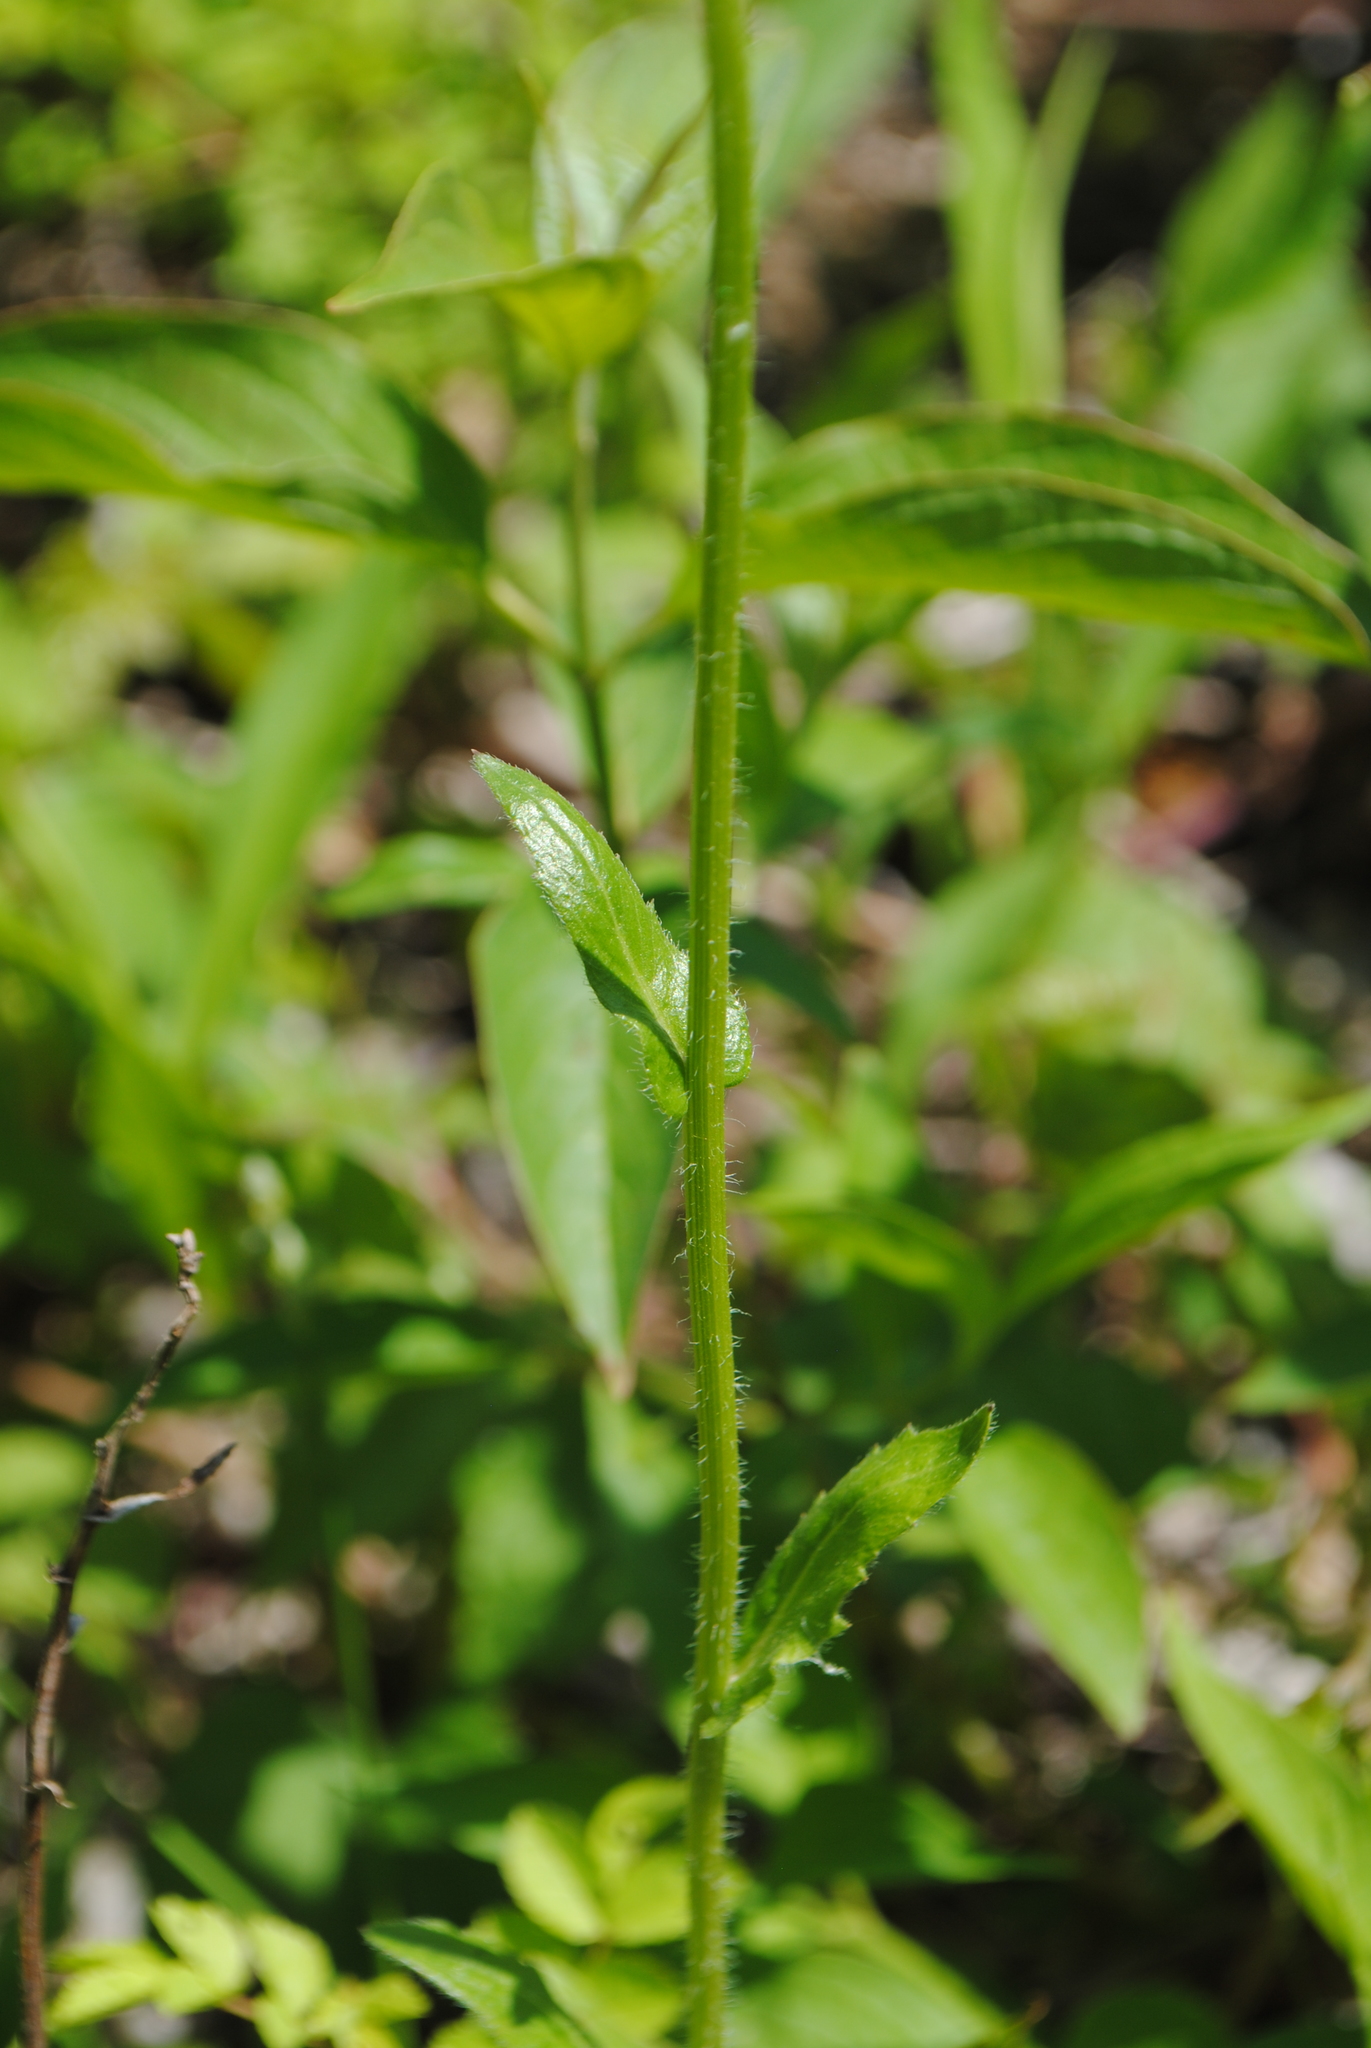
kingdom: Plantae
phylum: Tracheophyta
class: Magnoliopsida
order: Asterales
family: Asteraceae
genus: Erigeron
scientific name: Erigeron philadelphicus
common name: Robin's-plantain
